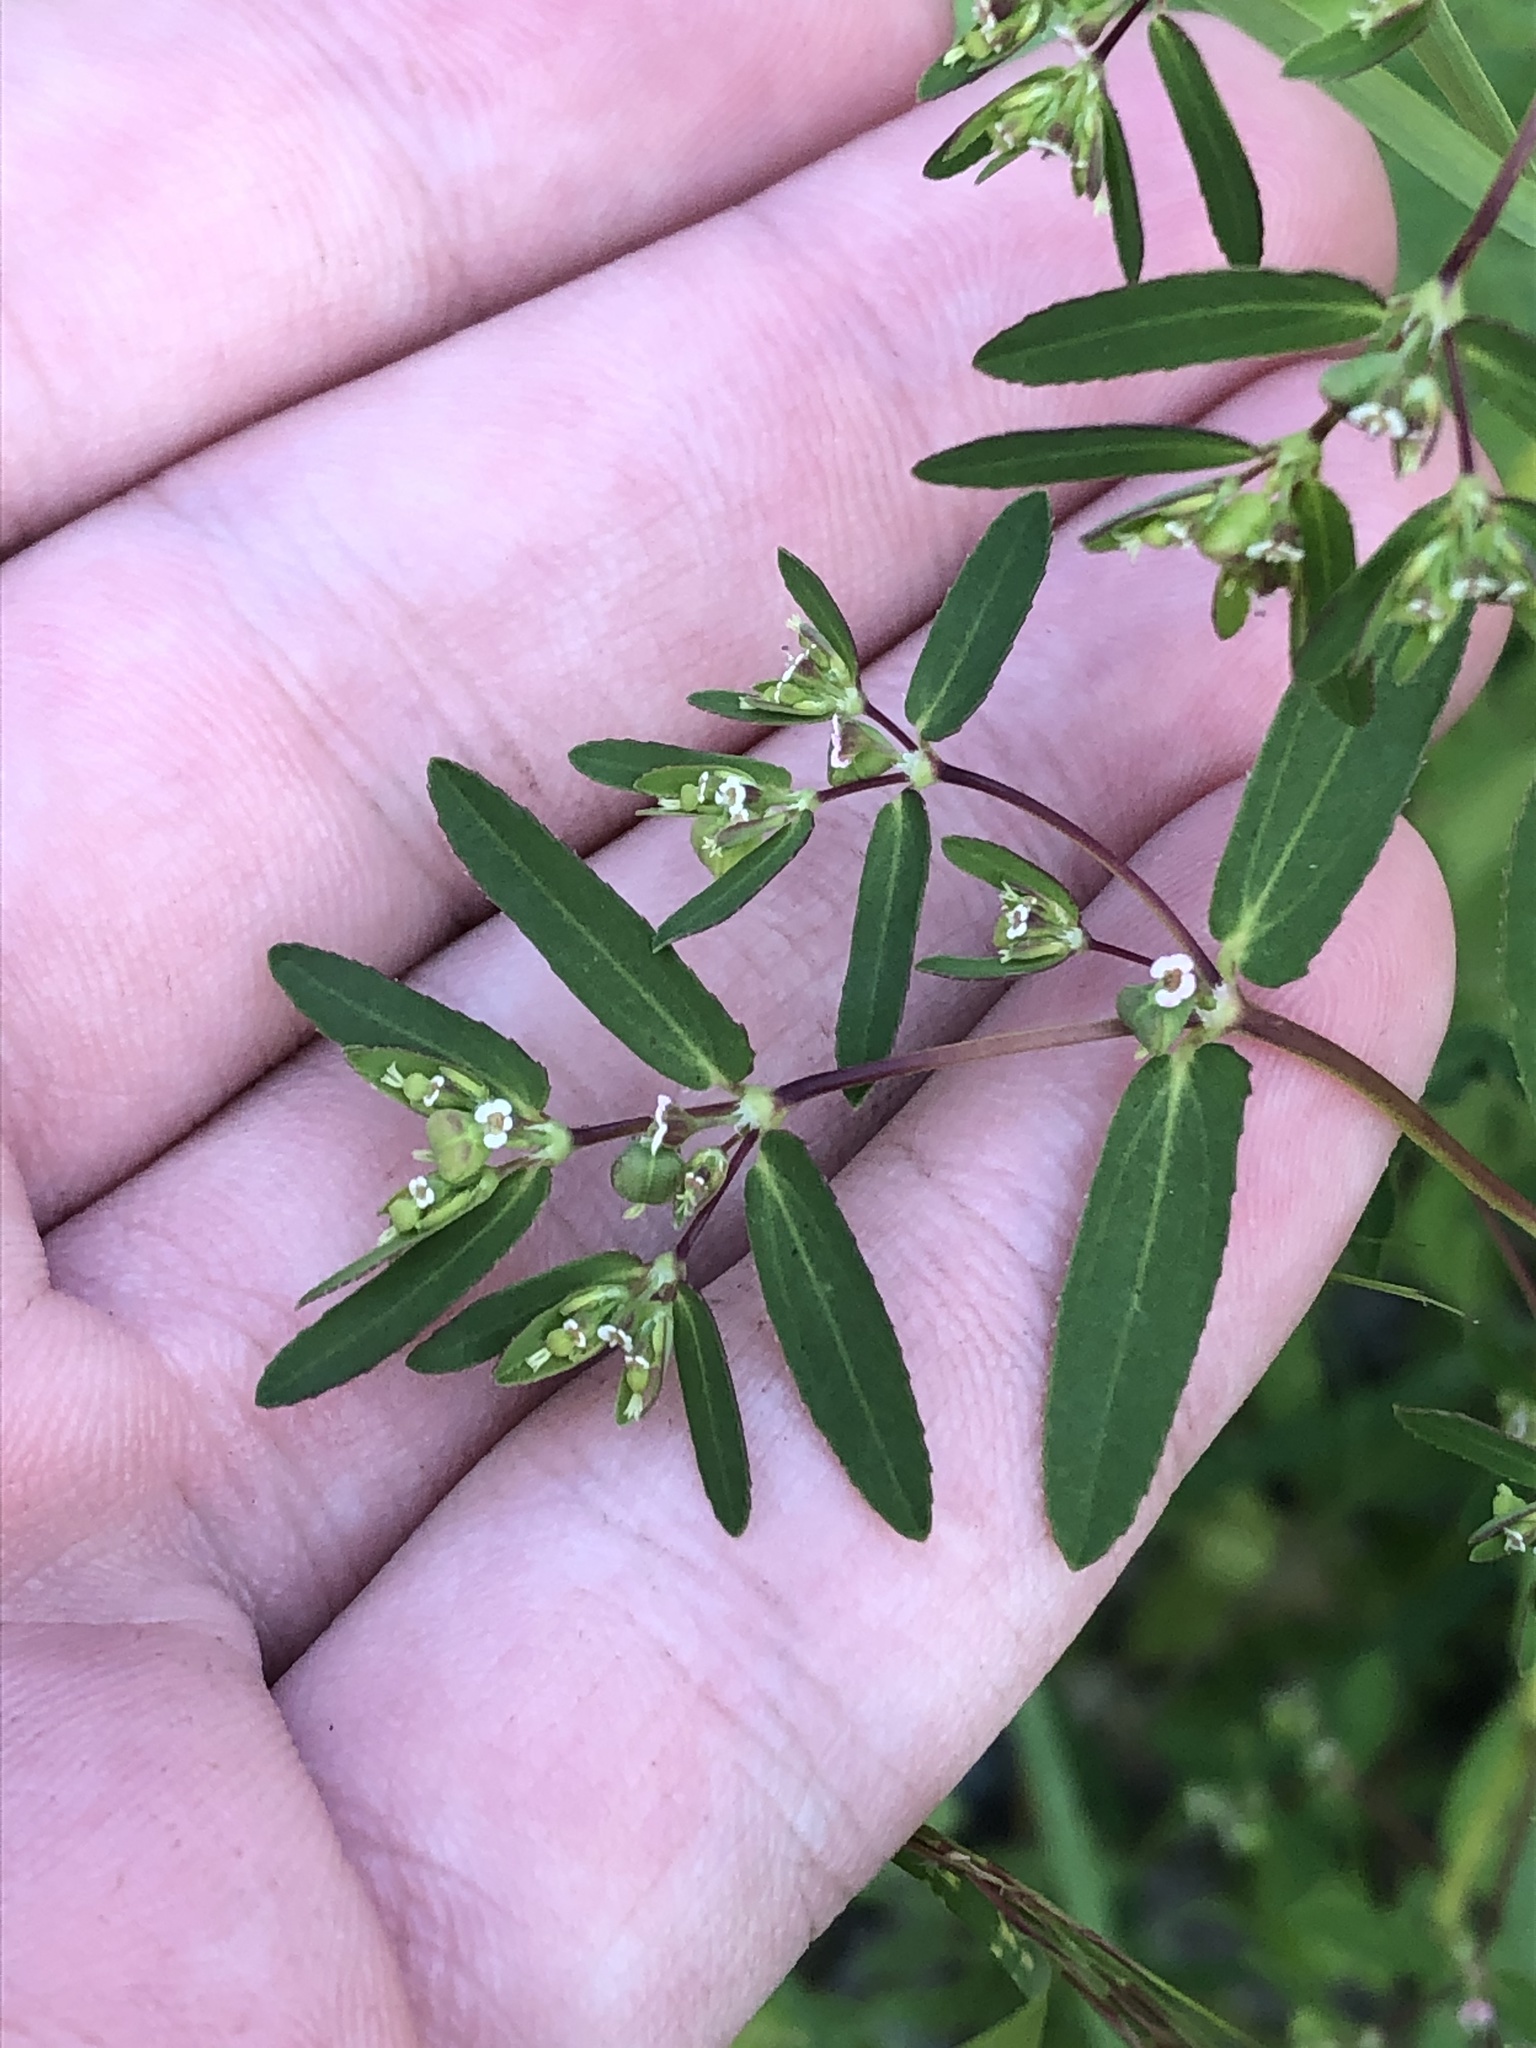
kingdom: Plantae
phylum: Tracheophyta
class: Magnoliopsida
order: Malpighiales
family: Euphorbiaceae
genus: Euphorbia
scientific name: Euphorbia hyssopifolia
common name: Hyssopleaf sandmat
